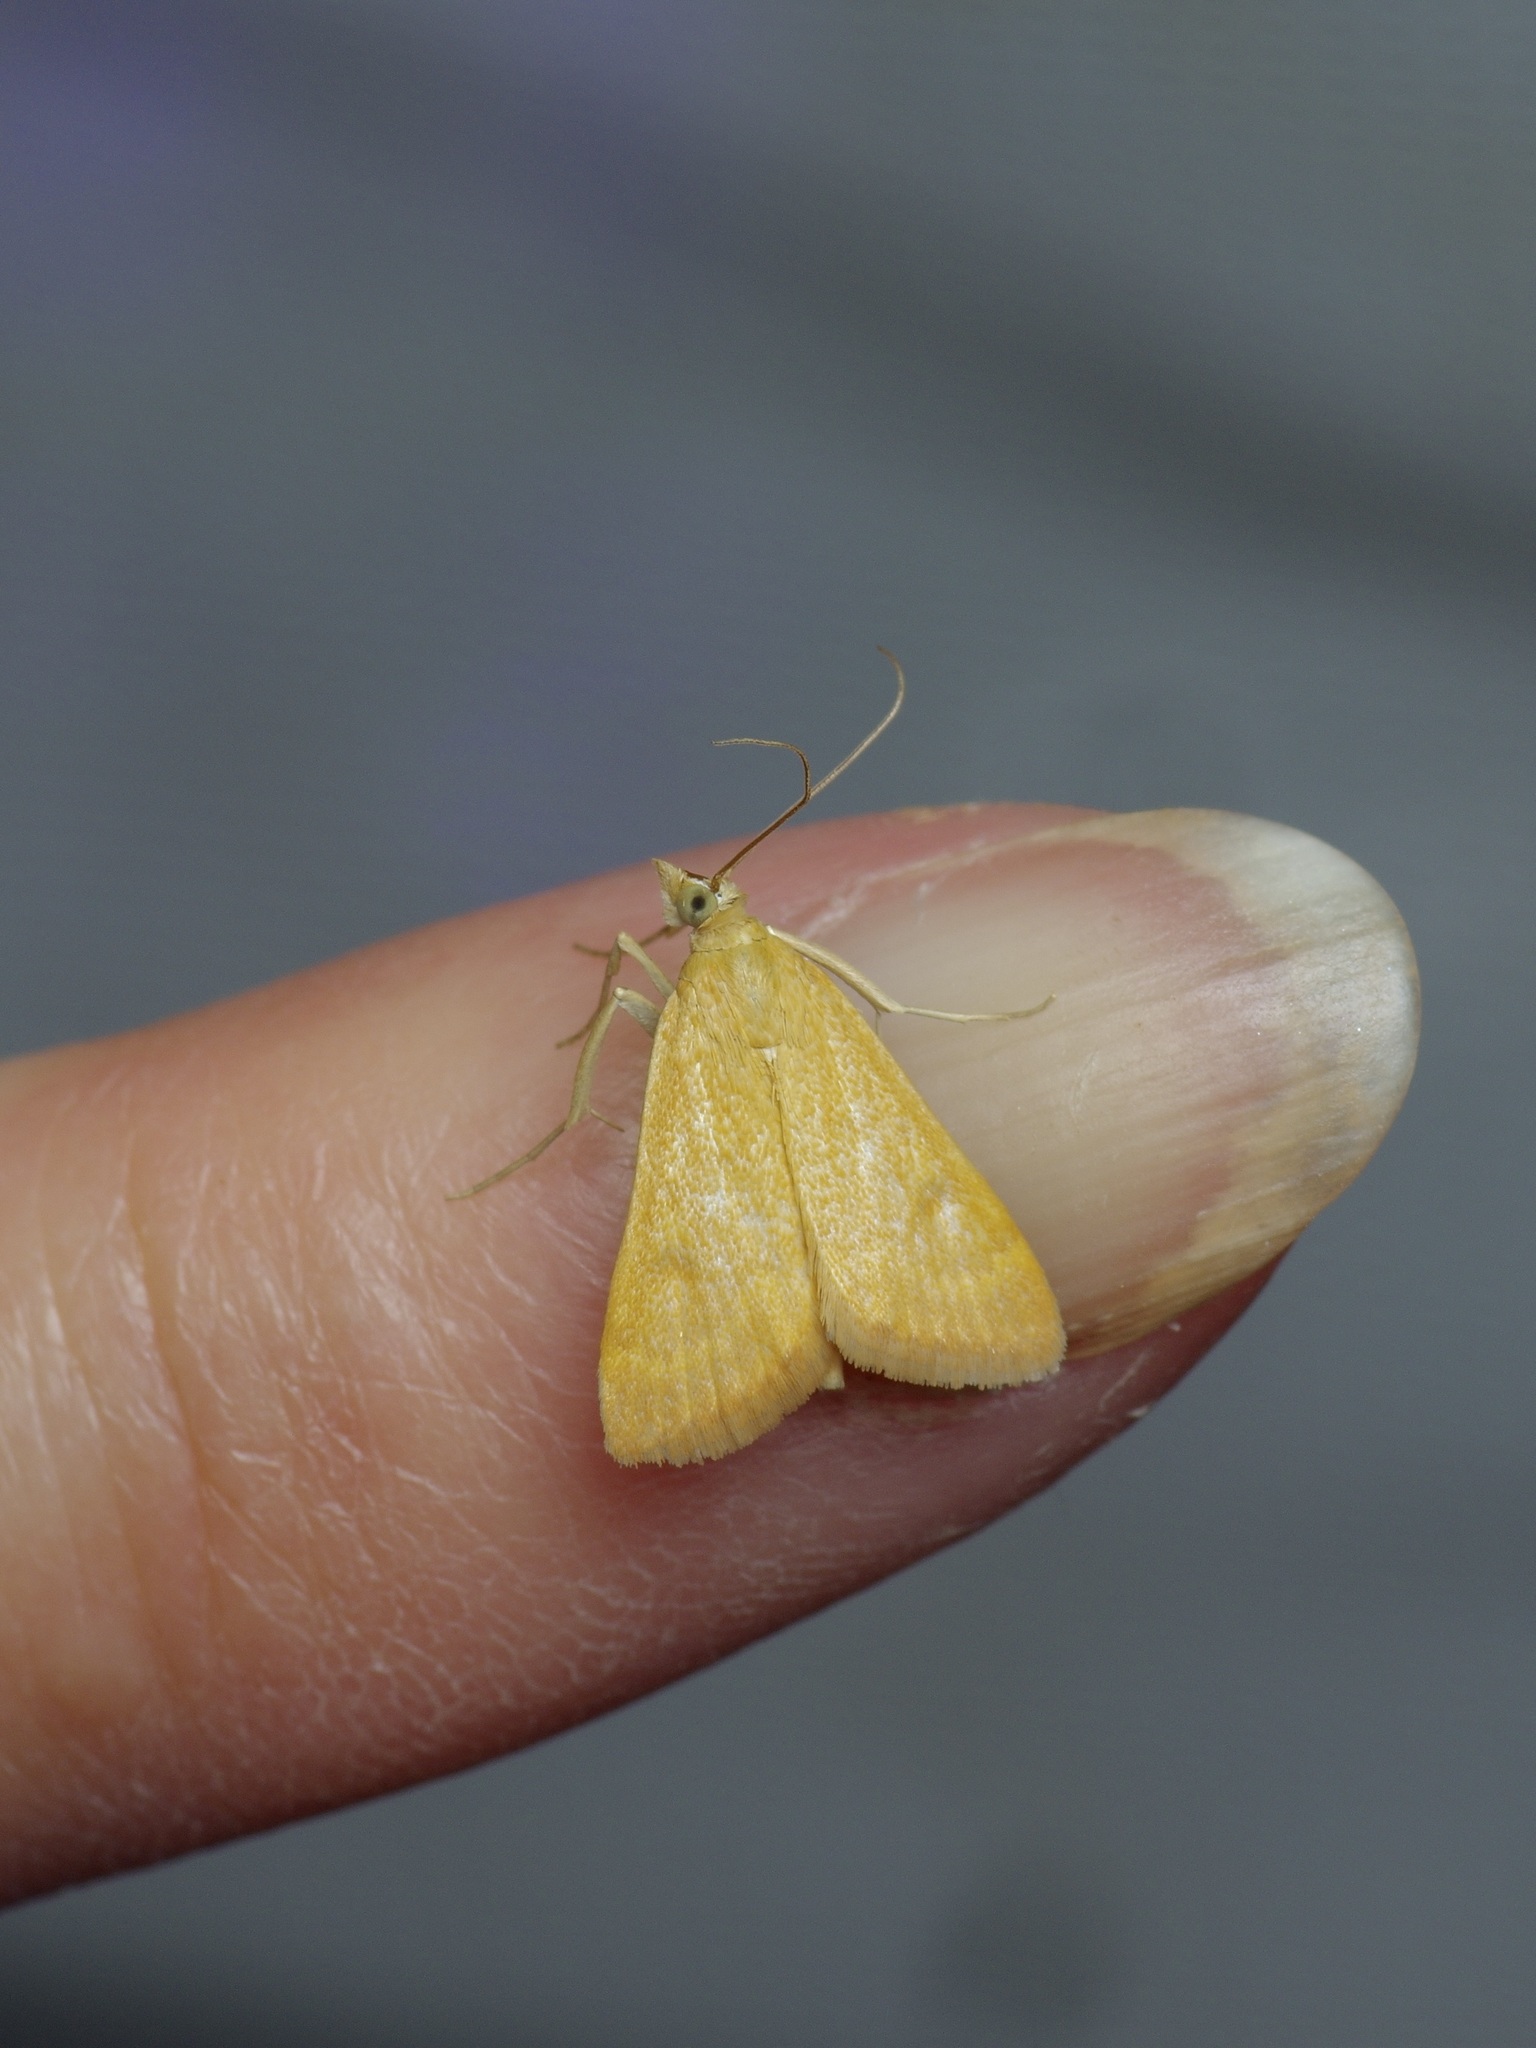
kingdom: Animalia
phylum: Arthropoda
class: Insecta
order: Lepidoptera
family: Crambidae
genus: Achyra
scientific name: Achyra rantalis
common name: Garden webworm
